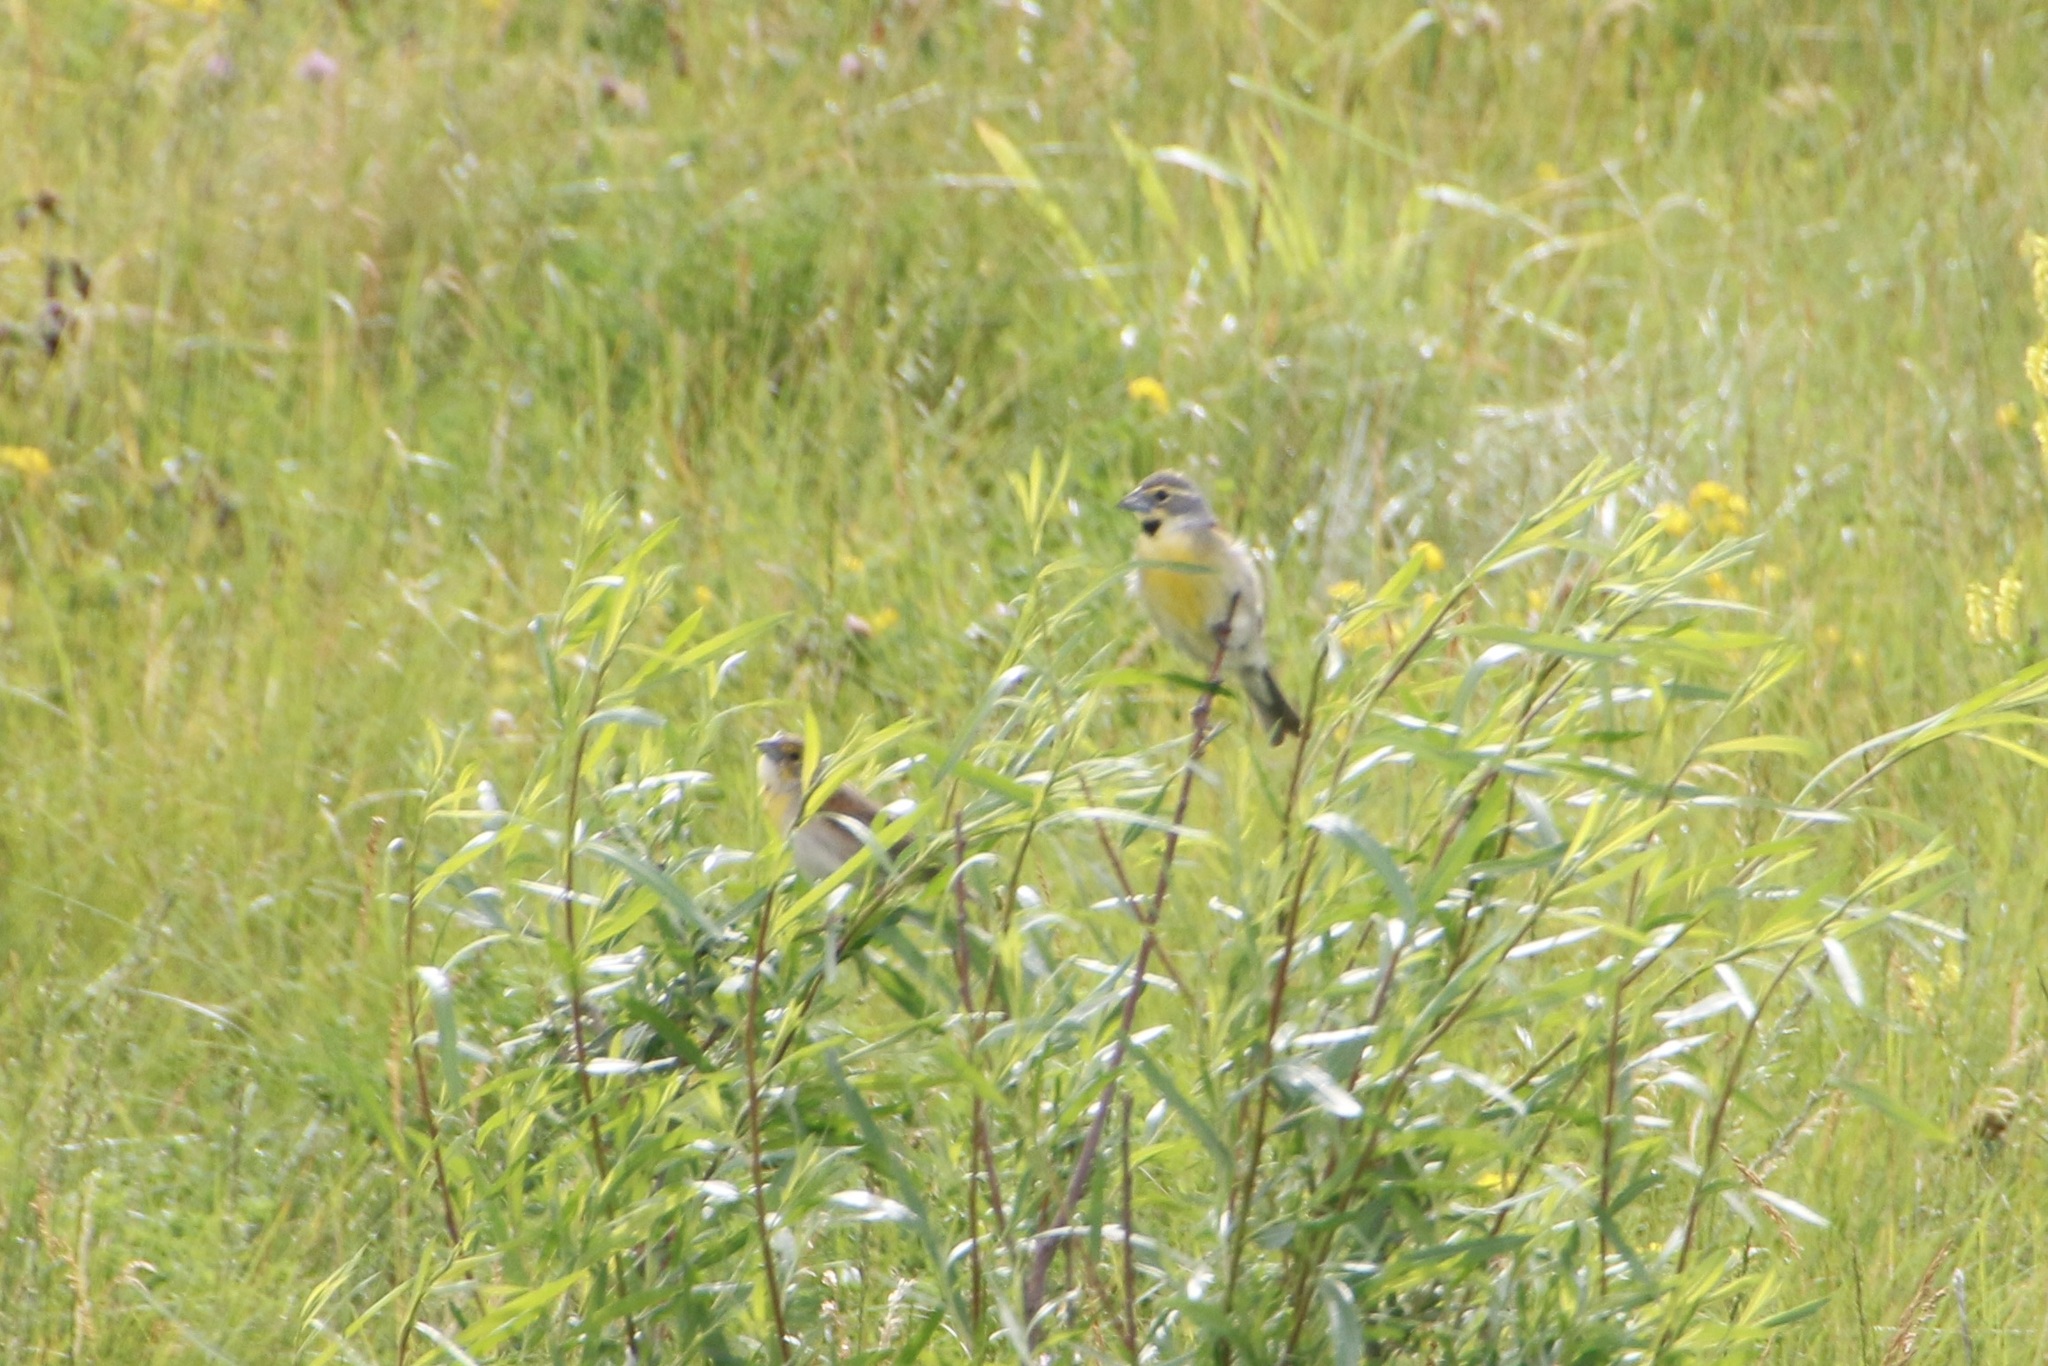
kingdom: Animalia
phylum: Chordata
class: Aves
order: Passeriformes
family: Cardinalidae
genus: Spiza
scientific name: Spiza americana
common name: Dickcissel
